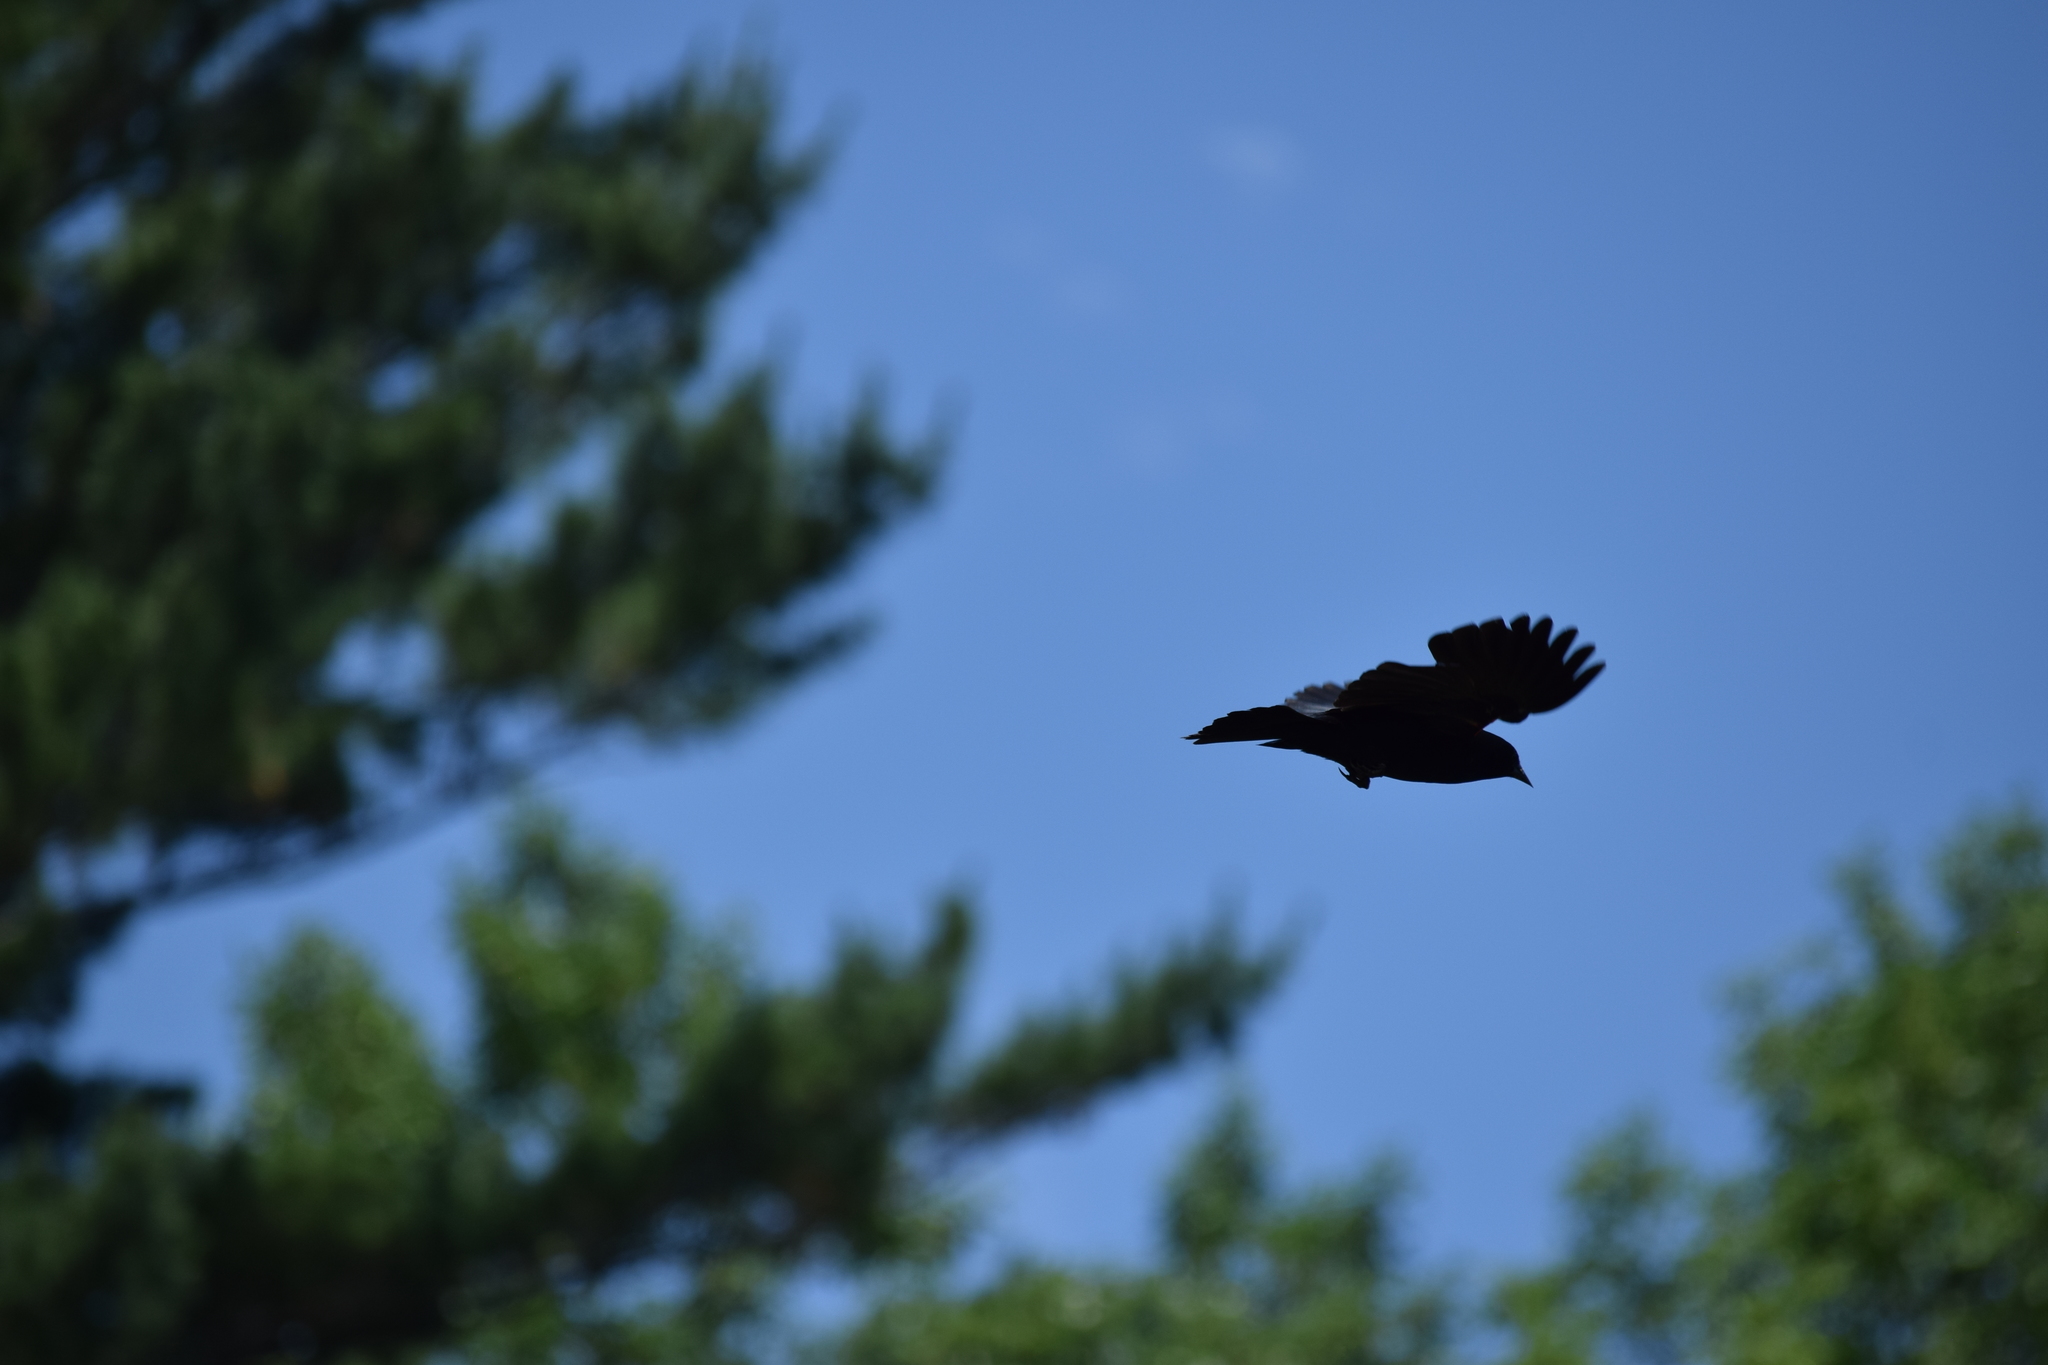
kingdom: Animalia
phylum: Chordata
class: Aves
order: Passeriformes
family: Corvidae
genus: Corvus
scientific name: Corvus brachyrhynchos
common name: American crow
